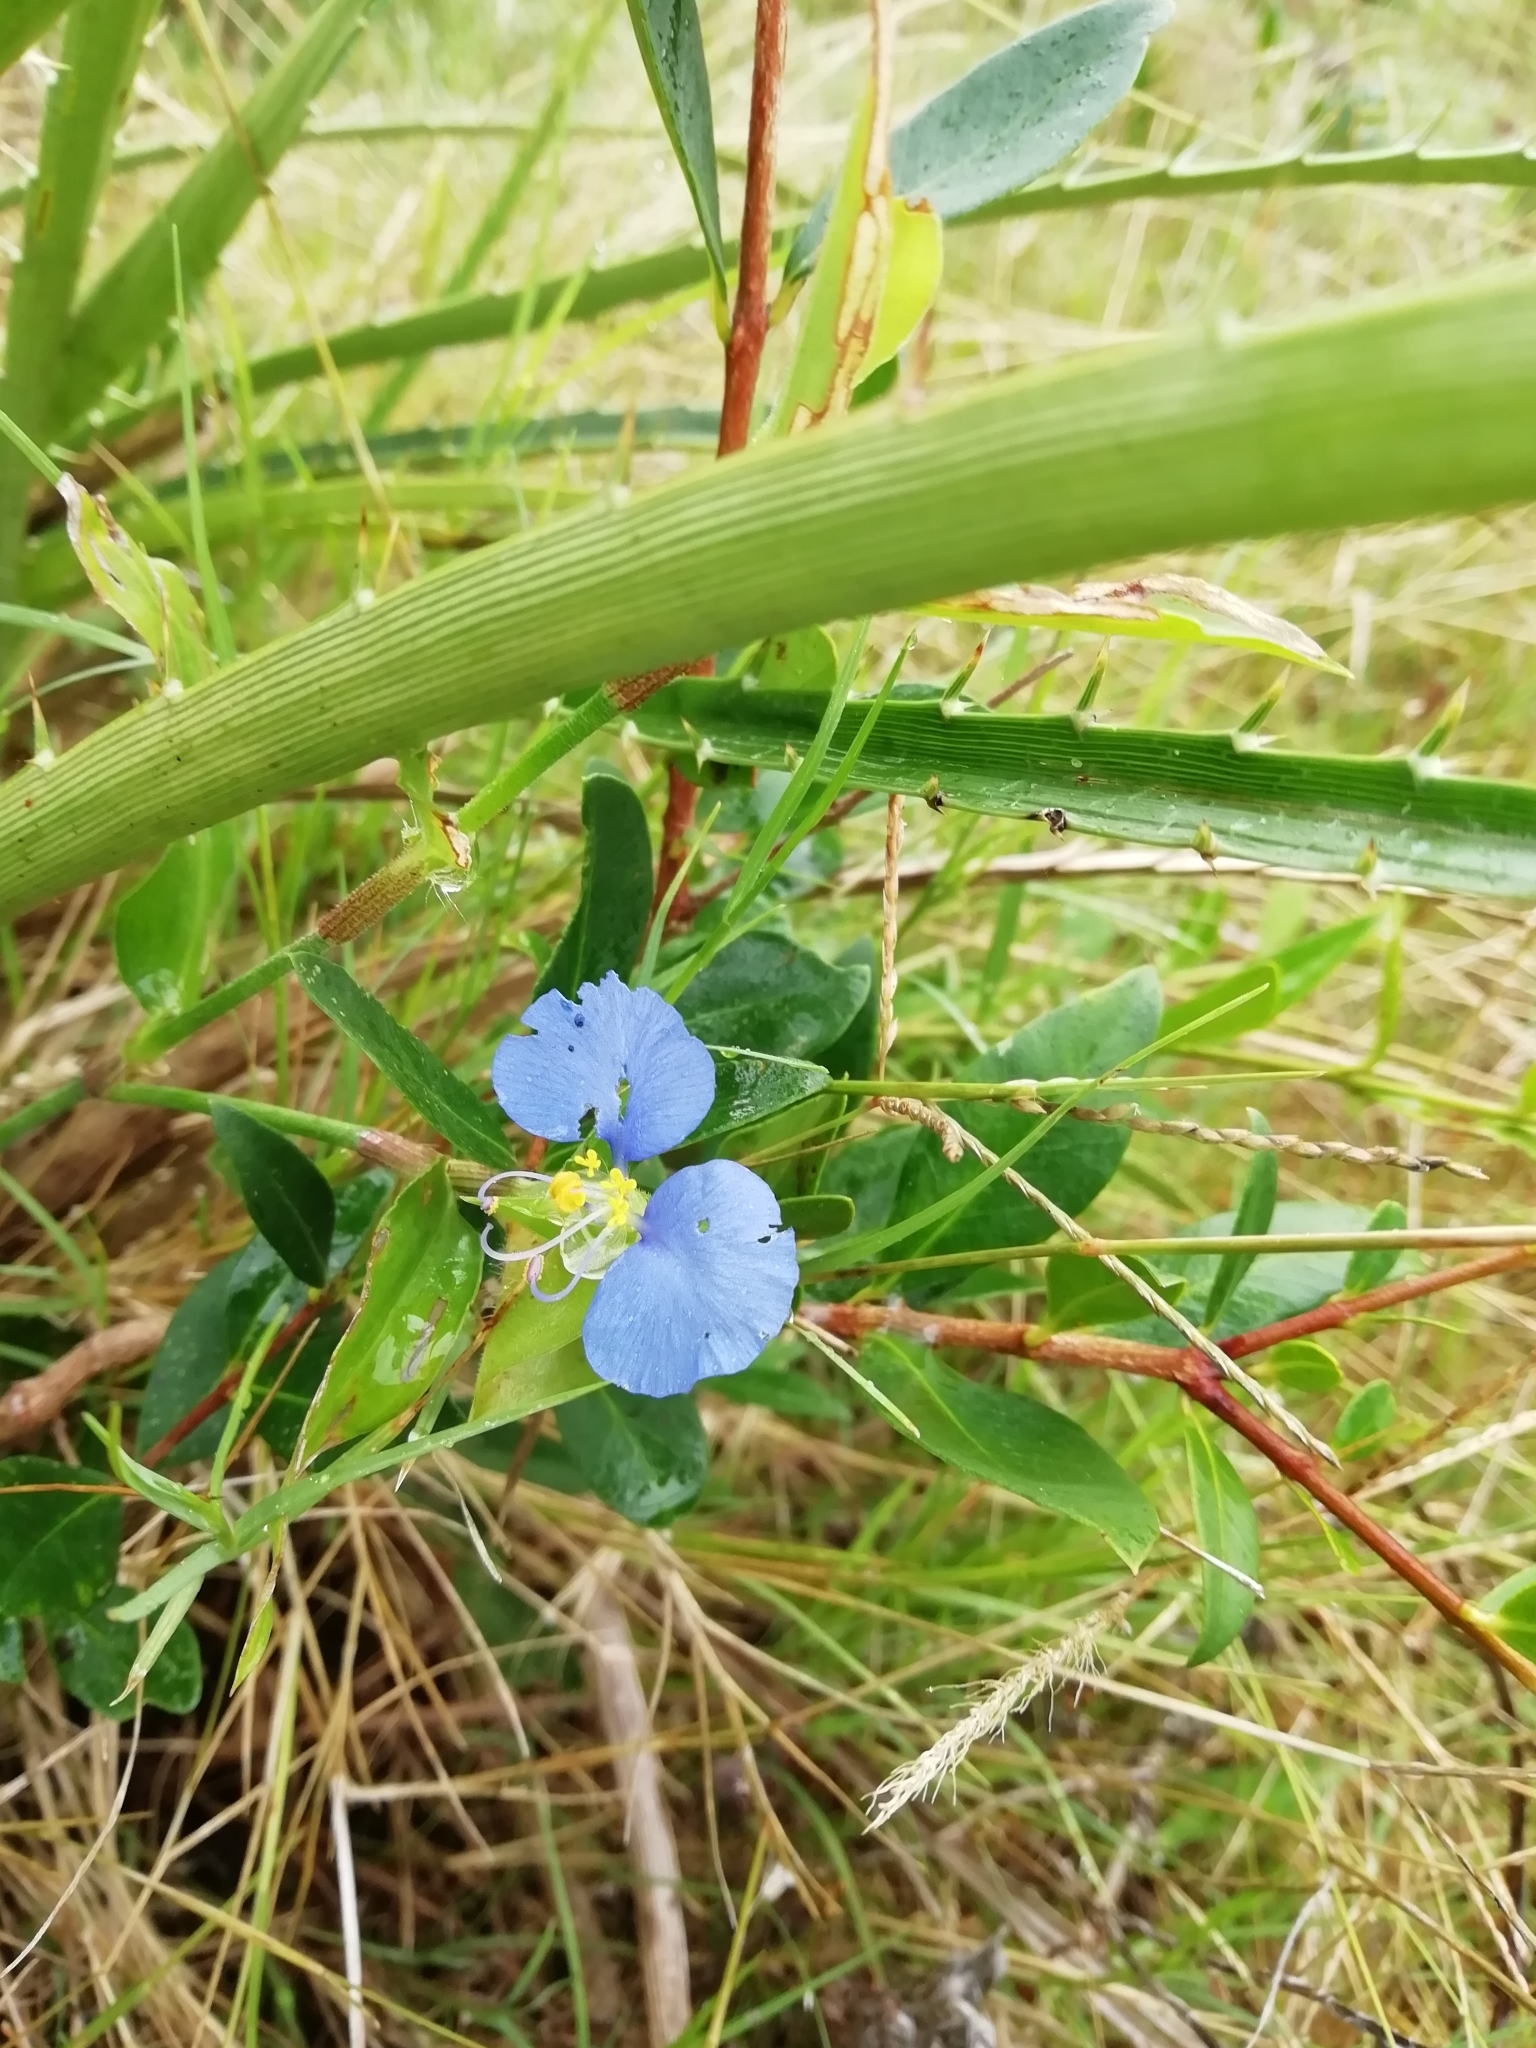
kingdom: Plantae
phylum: Tracheophyta
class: Liliopsida
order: Commelinales
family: Commelinaceae
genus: Commelina
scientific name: Commelina erecta
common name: Blousel blommetjie
